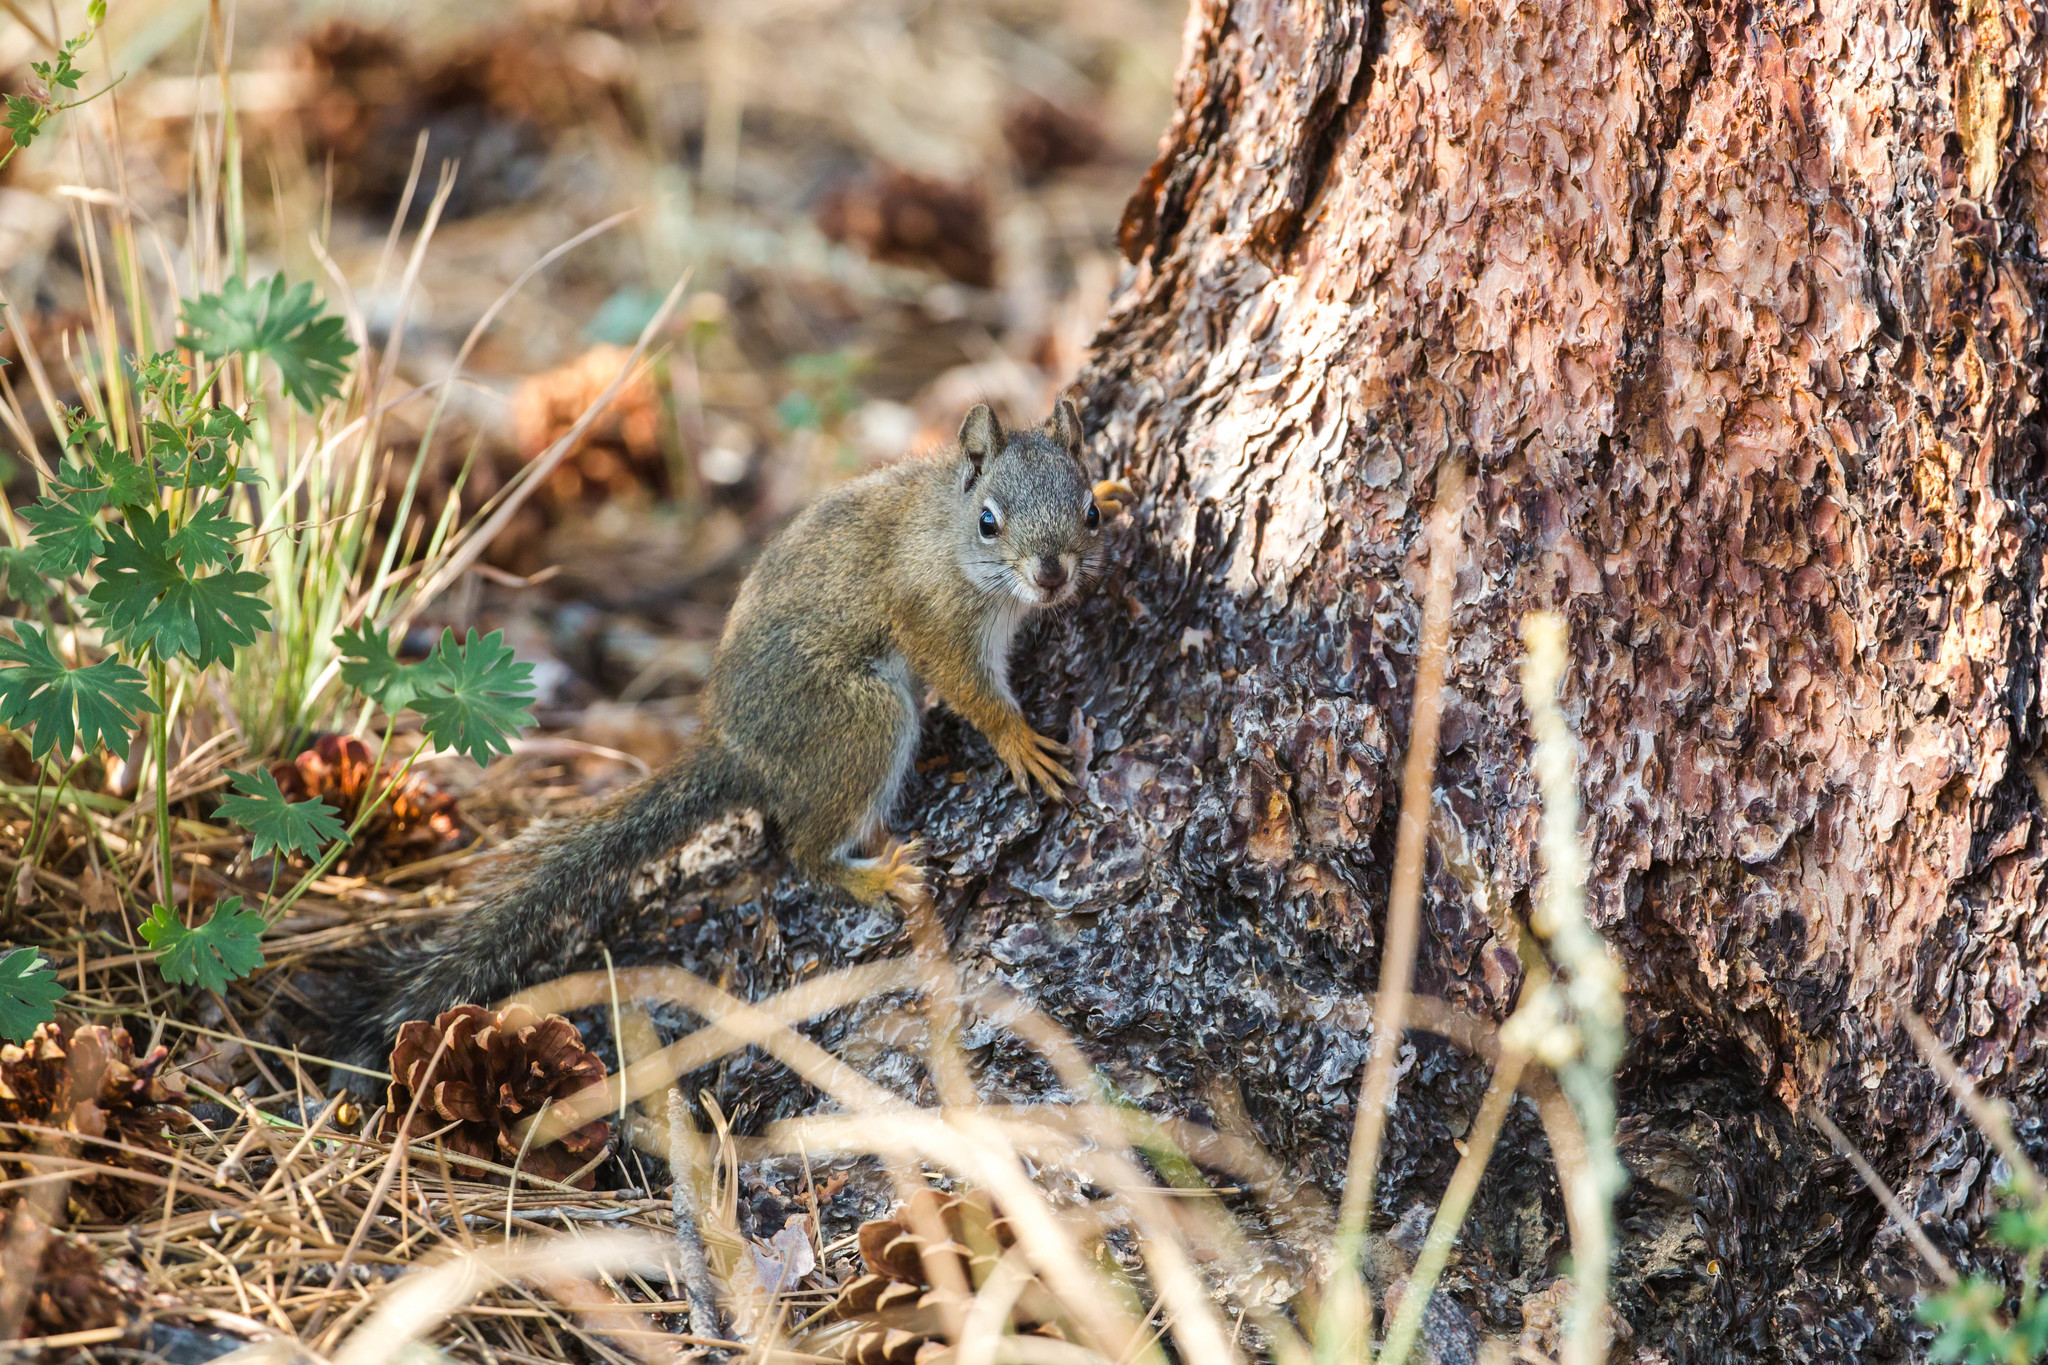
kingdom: Animalia
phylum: Chordata
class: Mammalia
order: Rodentia
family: Sciuridae
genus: Tamiasciurus
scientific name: Tamiasciurus hudsonicus
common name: Red squirrel
